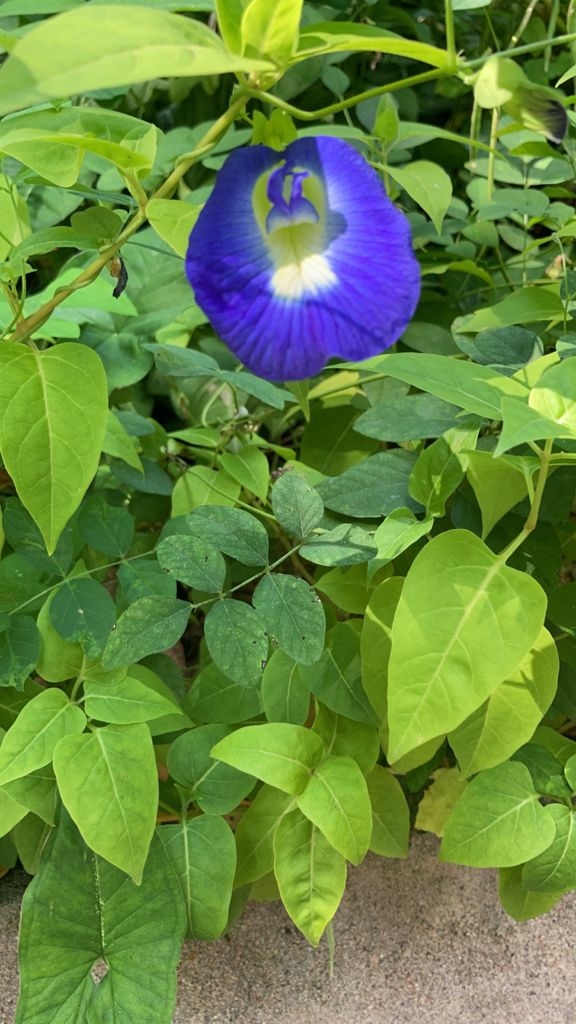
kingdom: Plantae
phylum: Tracheophyta
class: Magnoliopsida
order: Fabales
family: Fabaceae
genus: Clitoria
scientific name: Clitoria ternatea
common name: Asian pigeonwings
